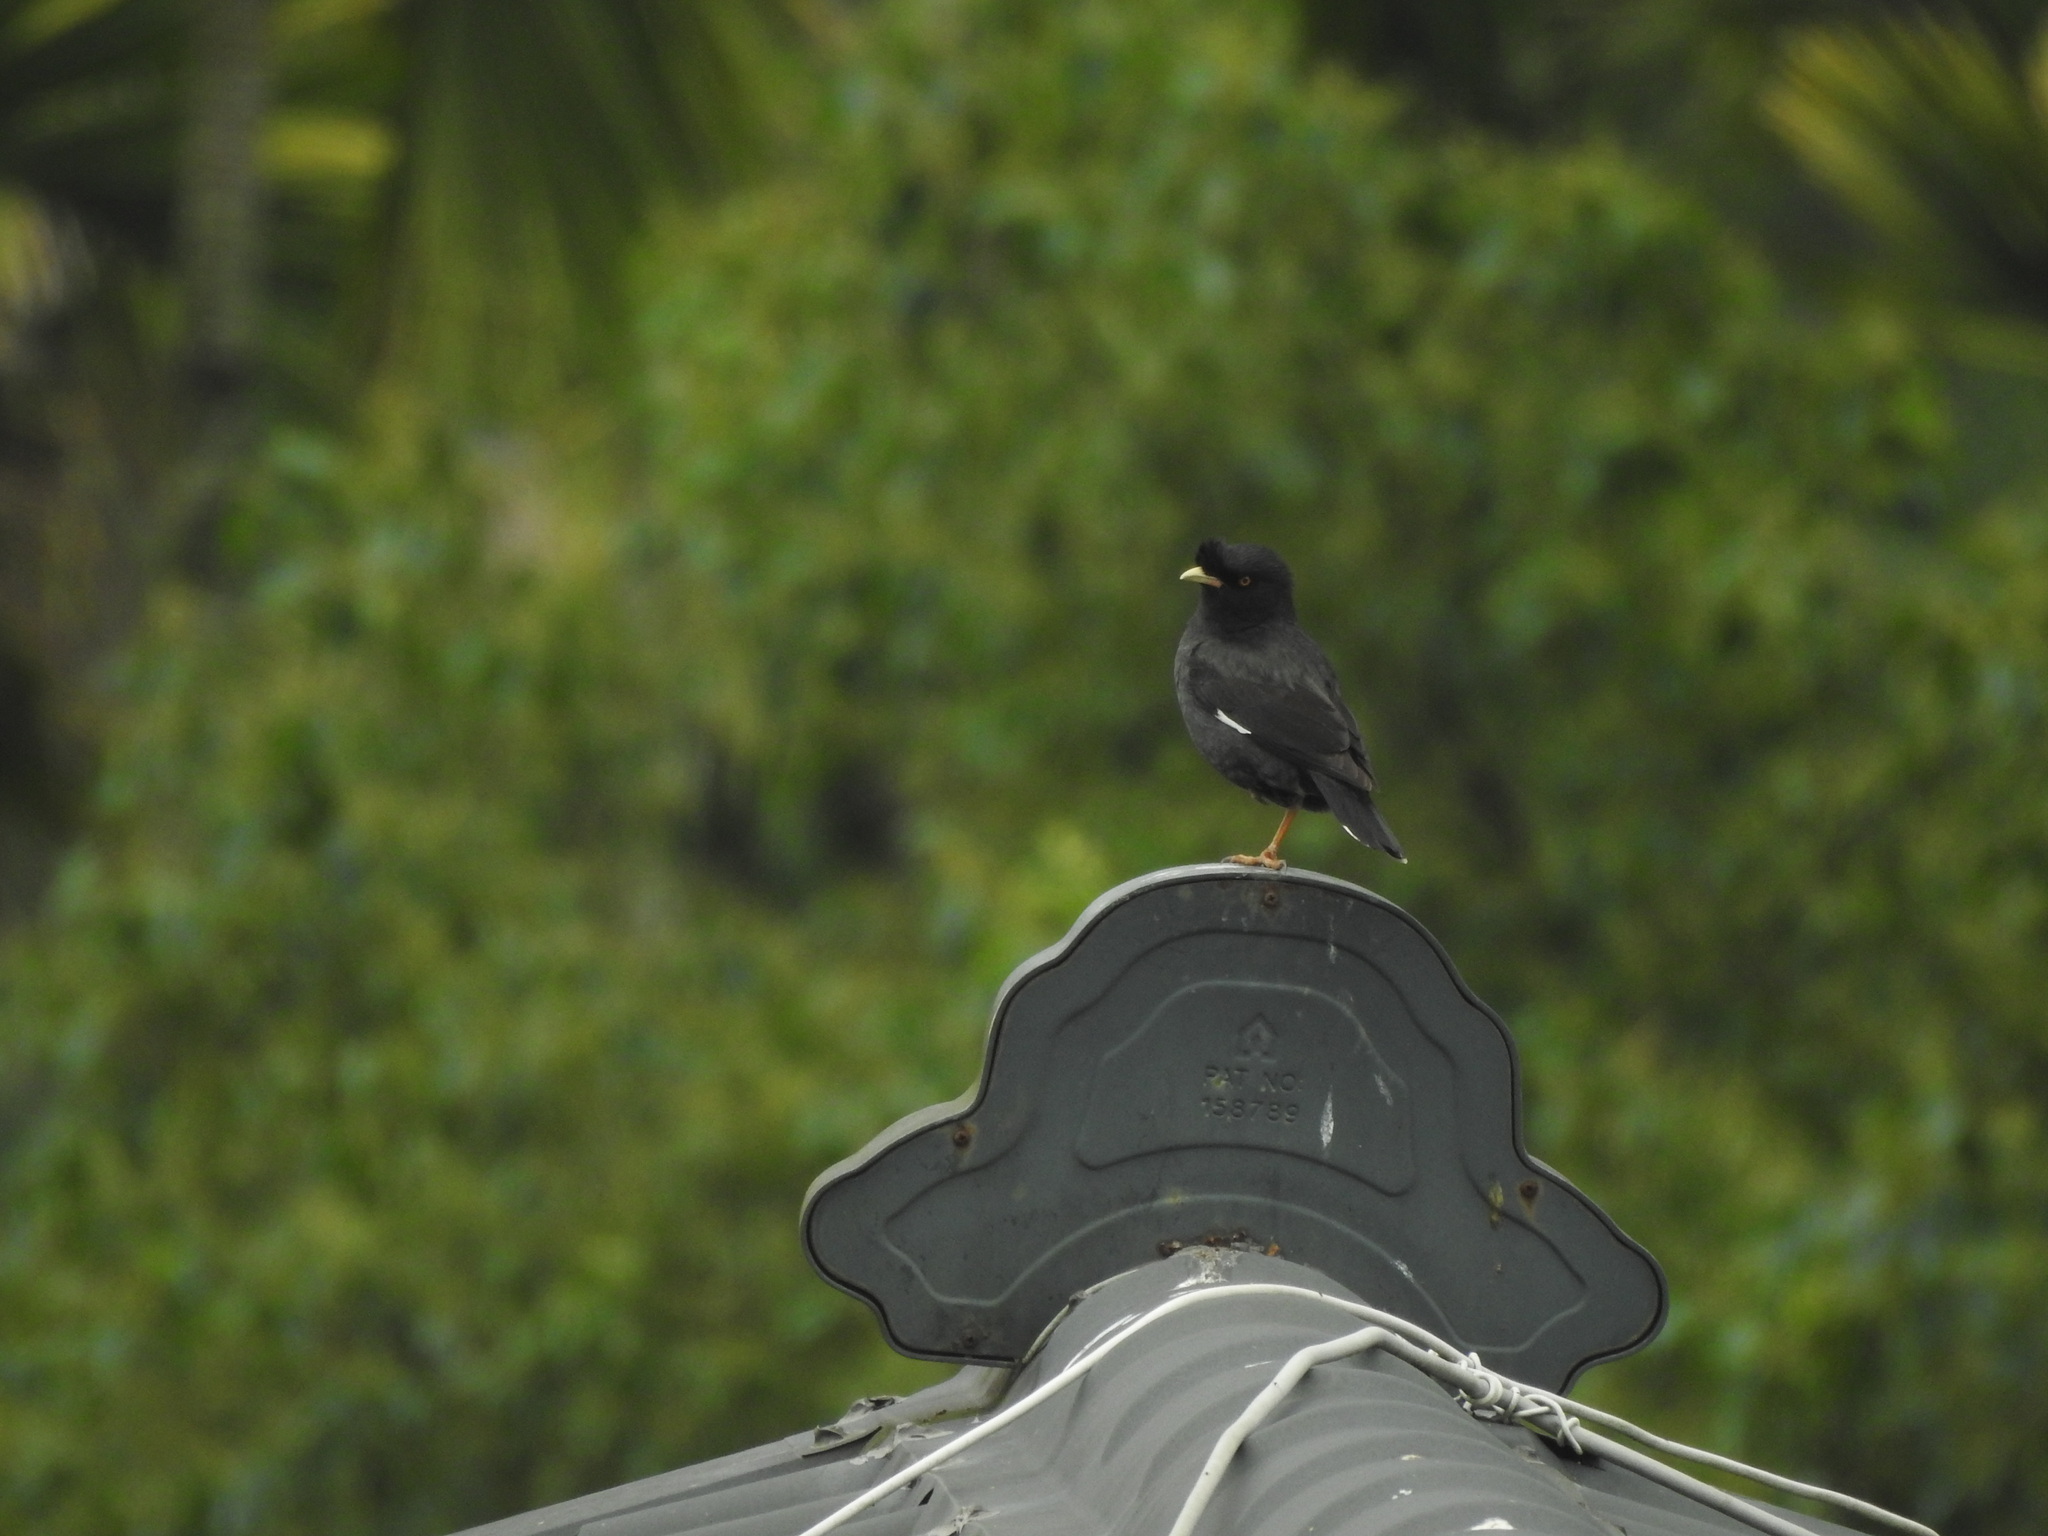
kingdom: Animalia
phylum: Chordata
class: Aves
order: Passeriformes
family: Sturnidae
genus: Acridotheres
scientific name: Acridotheres cristatellus
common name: Crested myna
